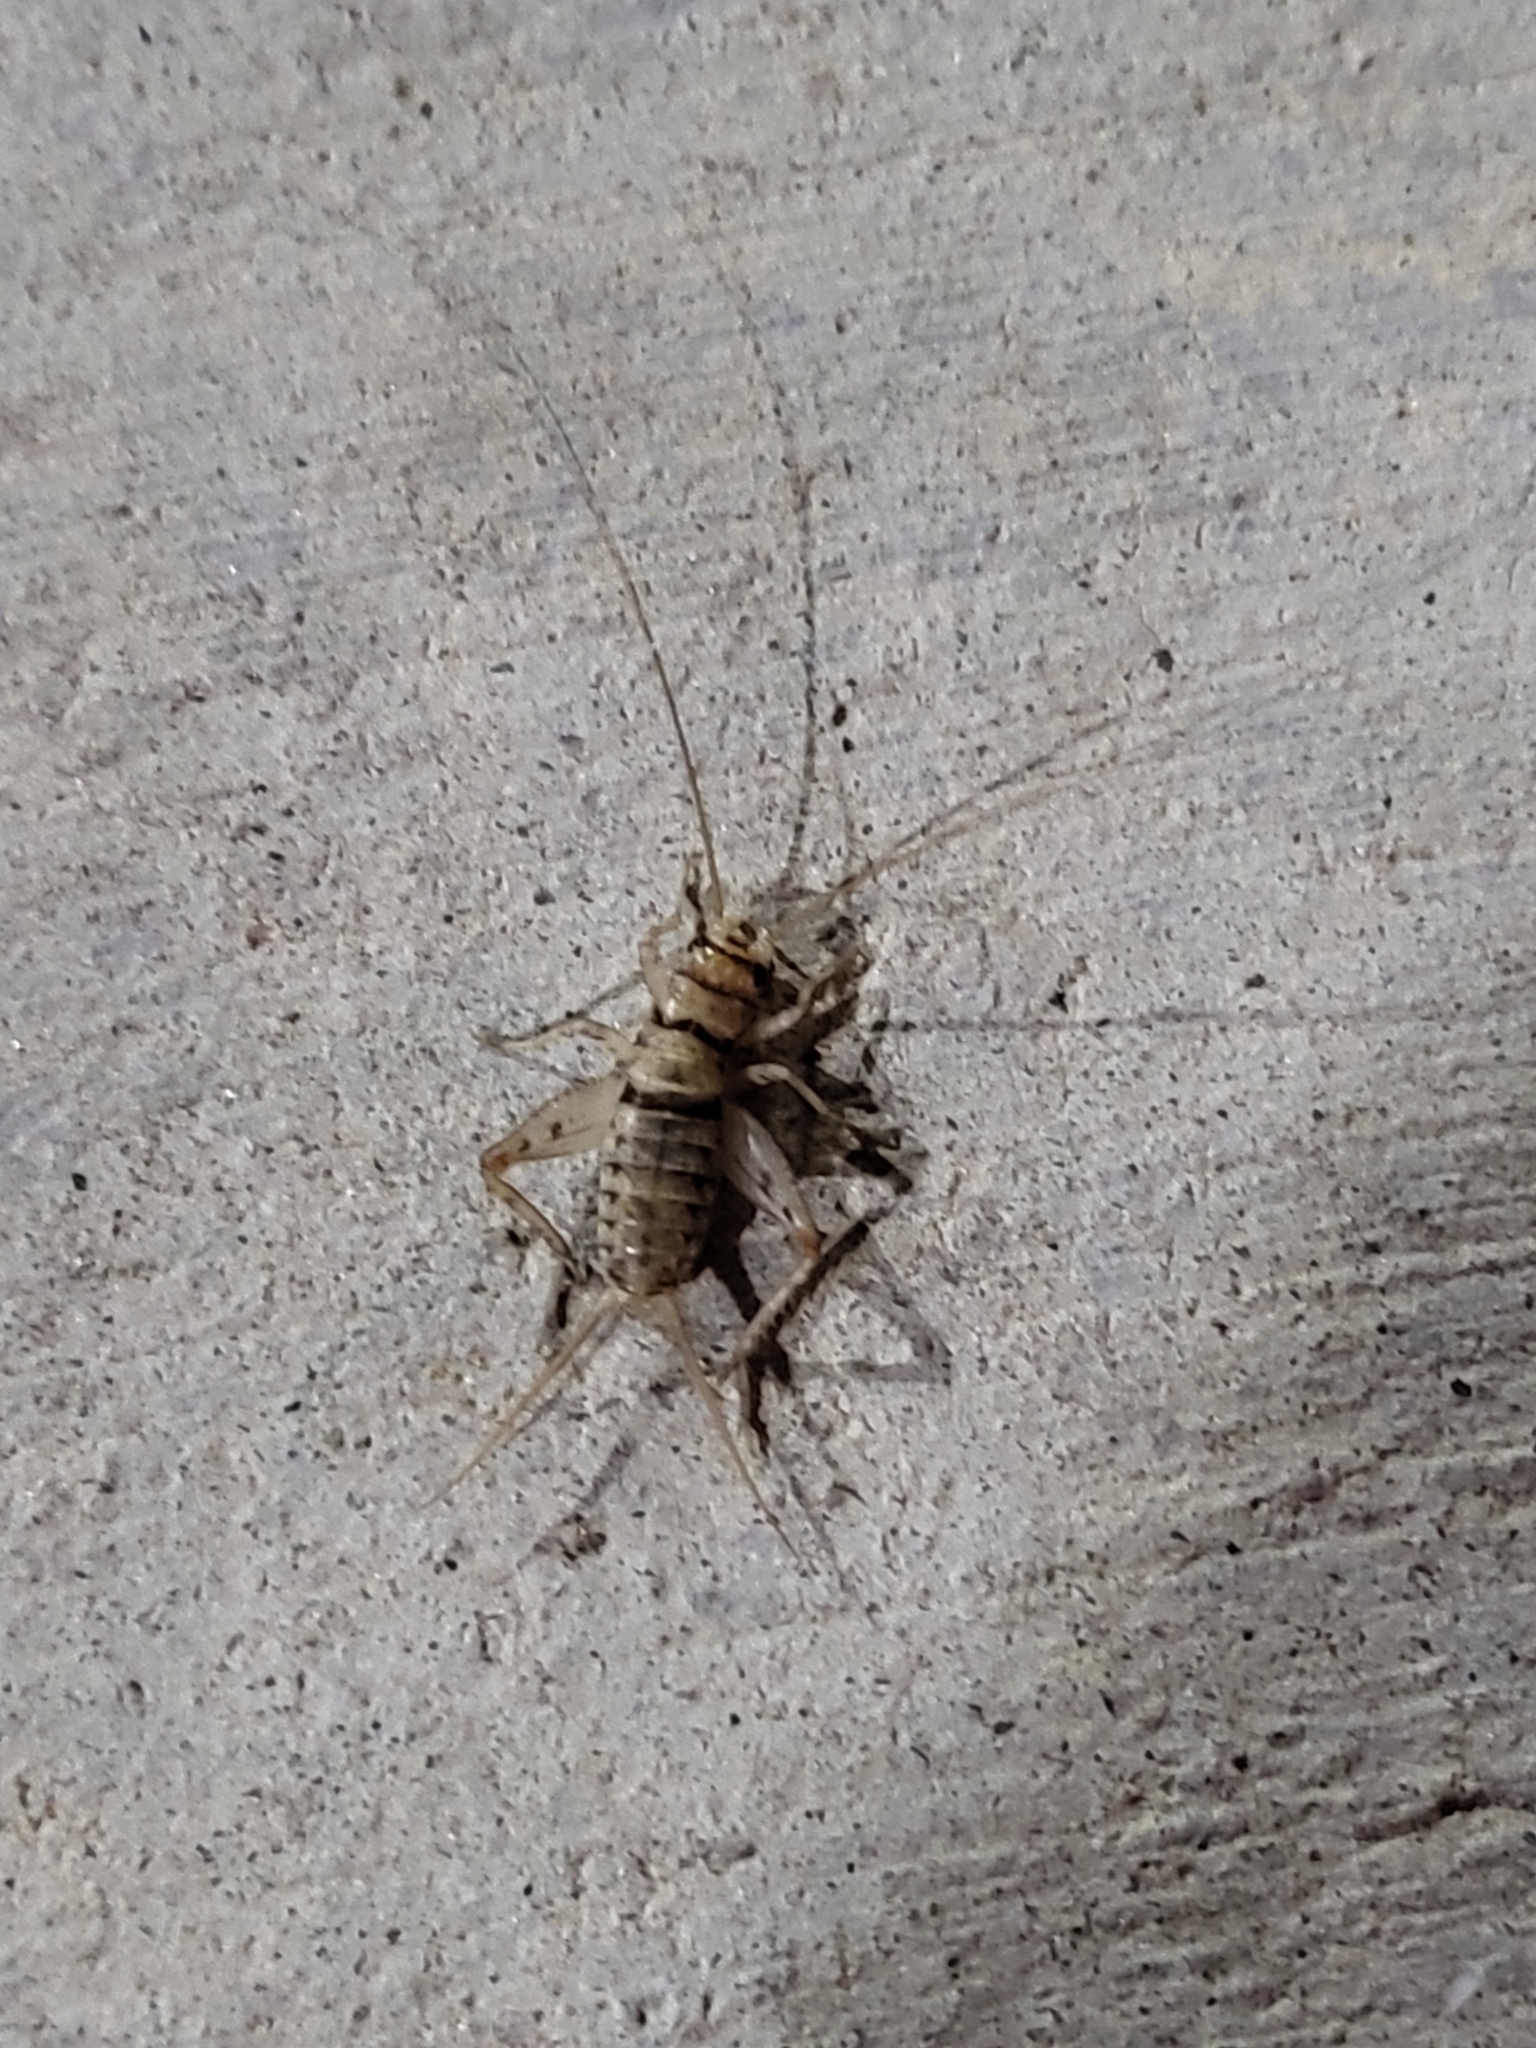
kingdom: Animalia
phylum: Arthropoda
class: Insecta
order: Orthoptera
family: Gryllidae
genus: Gryllodes
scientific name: Gryllodes sigillatus
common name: Tropical house cricket
